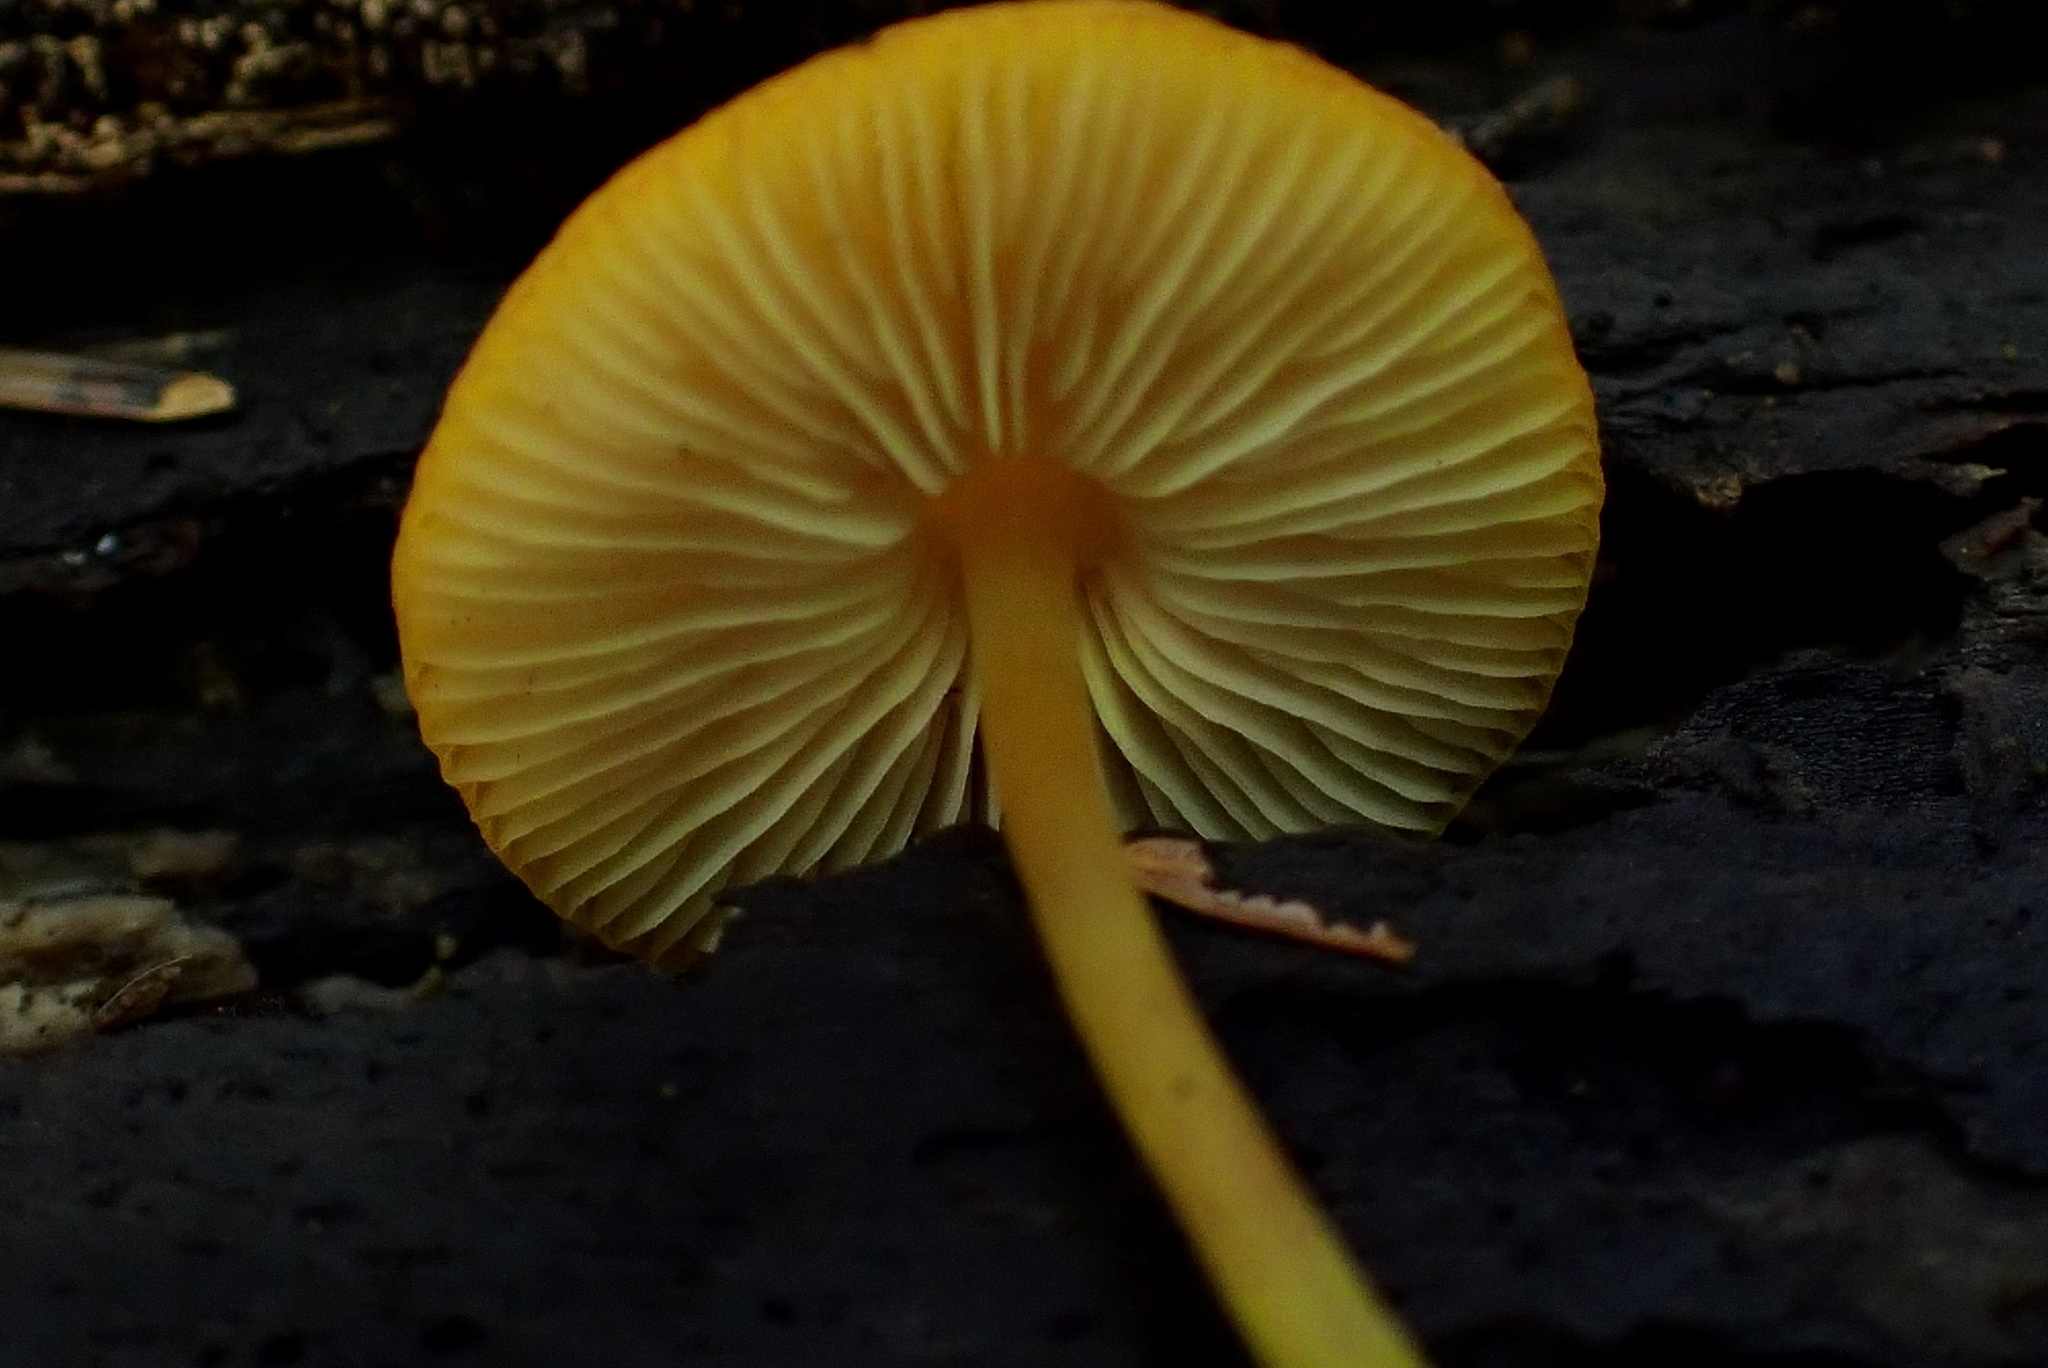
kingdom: Fungi
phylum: Basidiomycota
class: Agaricomycetes
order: Agaricales
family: Pluteaceae
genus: Pluteus
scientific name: Pluteus chrysophlebius
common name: Yellow deer mushroom
